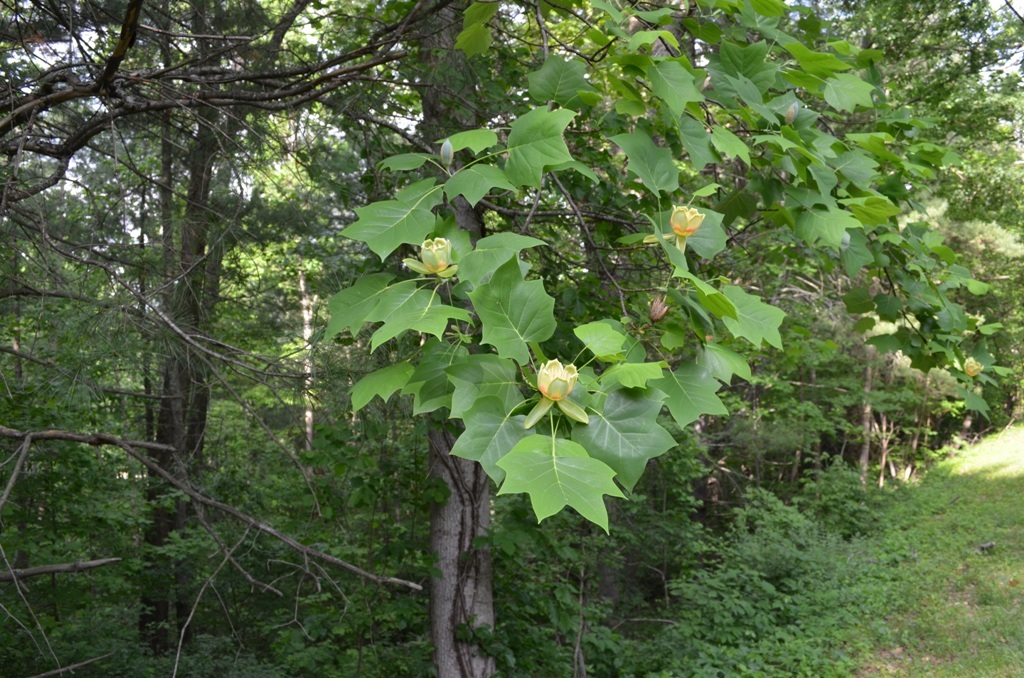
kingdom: Plantae
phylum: Tracheophyta
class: Magnoliopsida
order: Magnoliales
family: Magnoliaceae
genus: Liriodendron
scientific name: Liriodendron tulipifera
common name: Tulip tree
